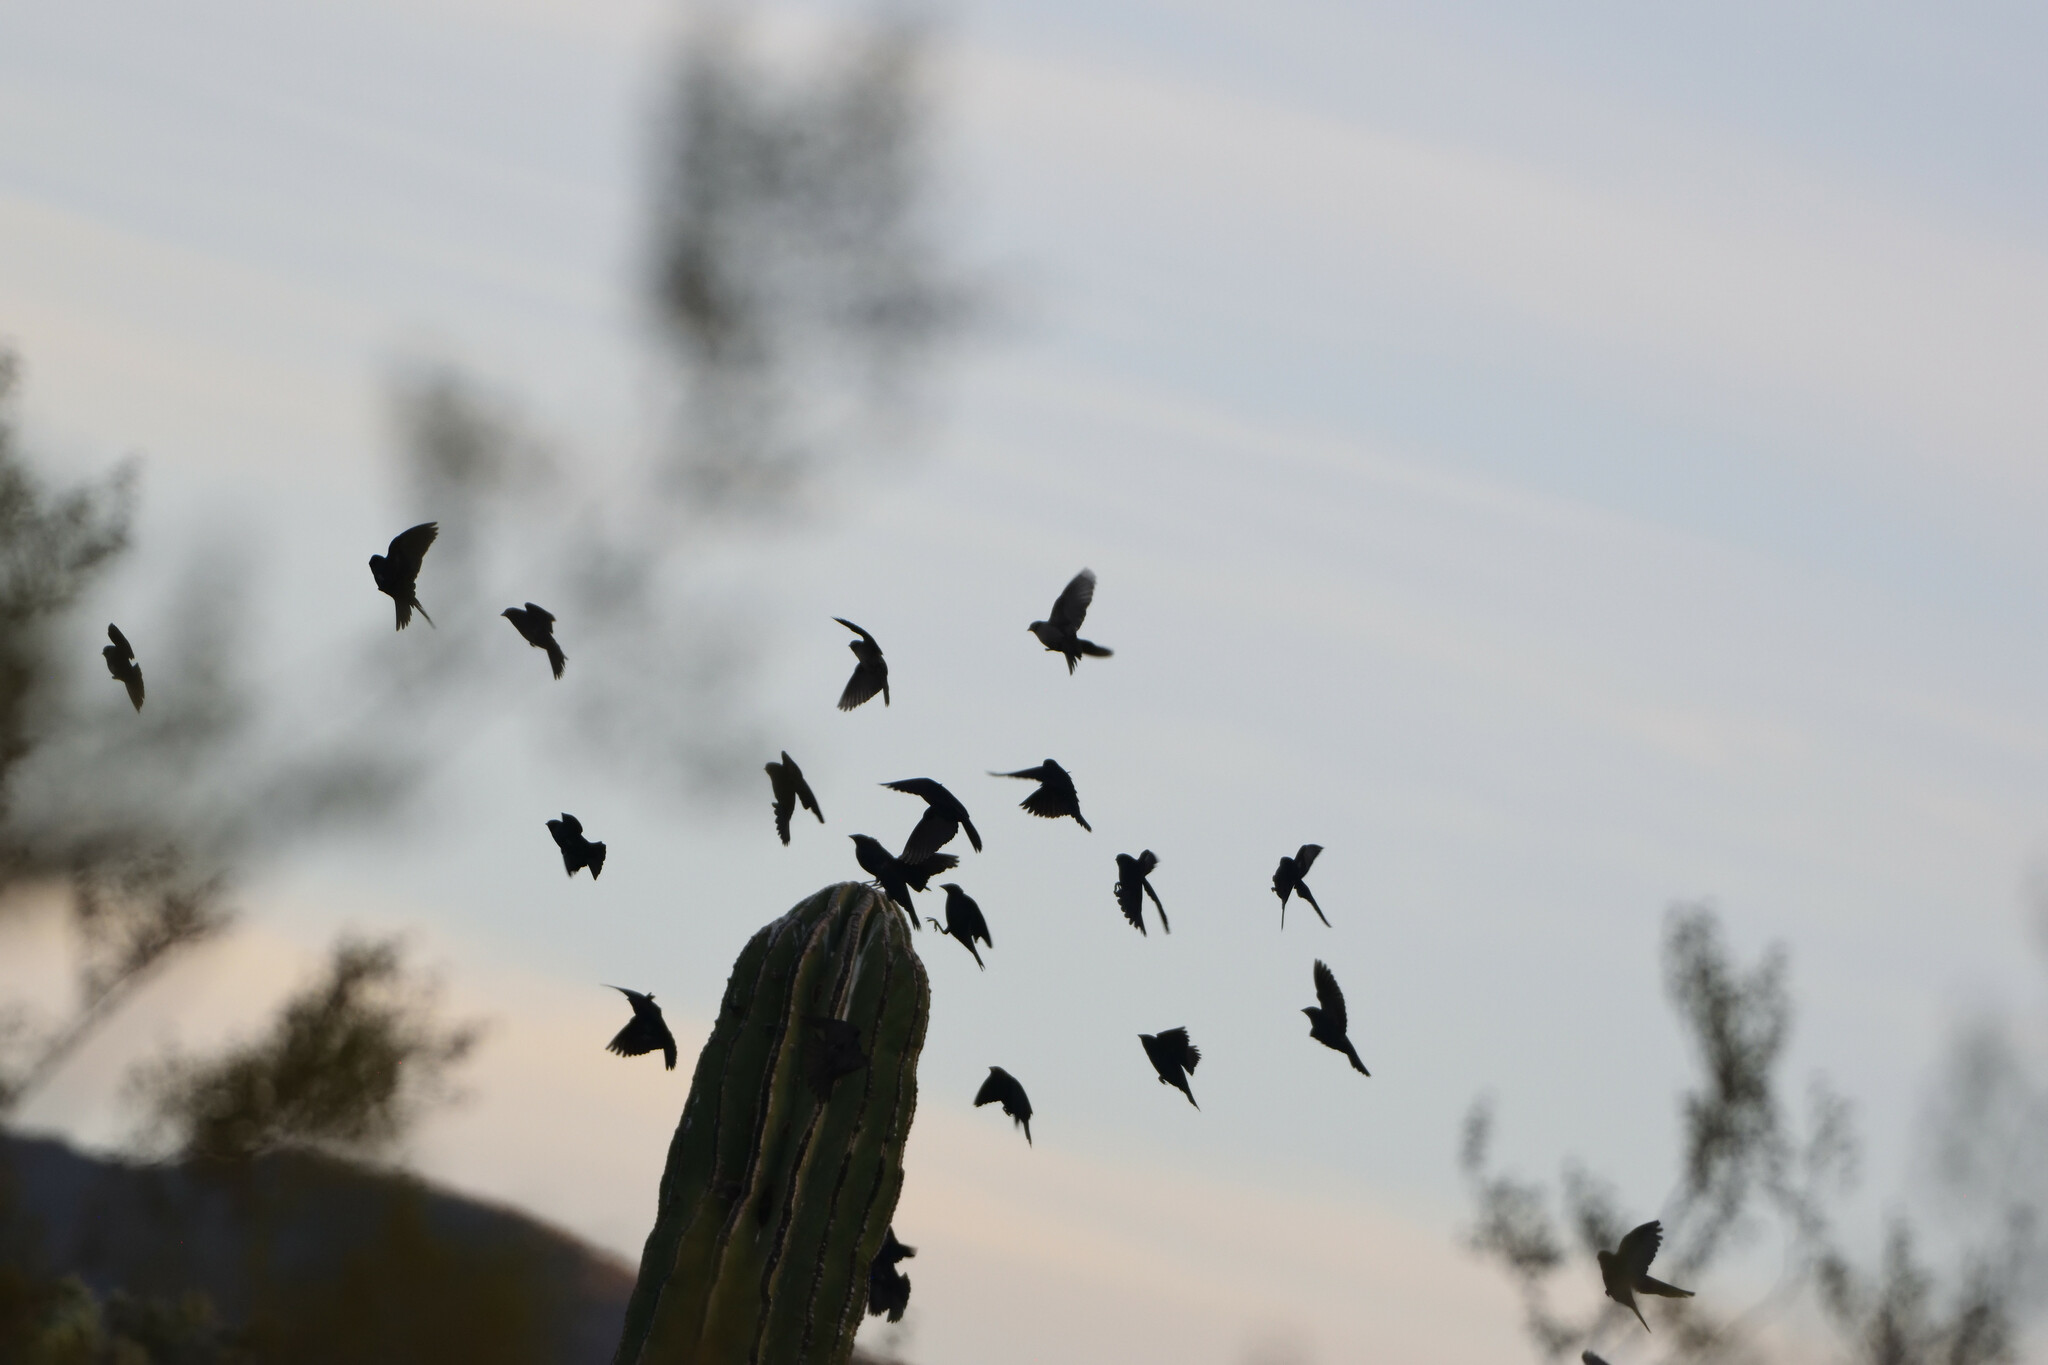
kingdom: Animalia
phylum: Chordata
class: Aves
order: Passeriformes
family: Icteridae
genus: Molothrus
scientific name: Molothrus ater
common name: Brown-headed cowbird
